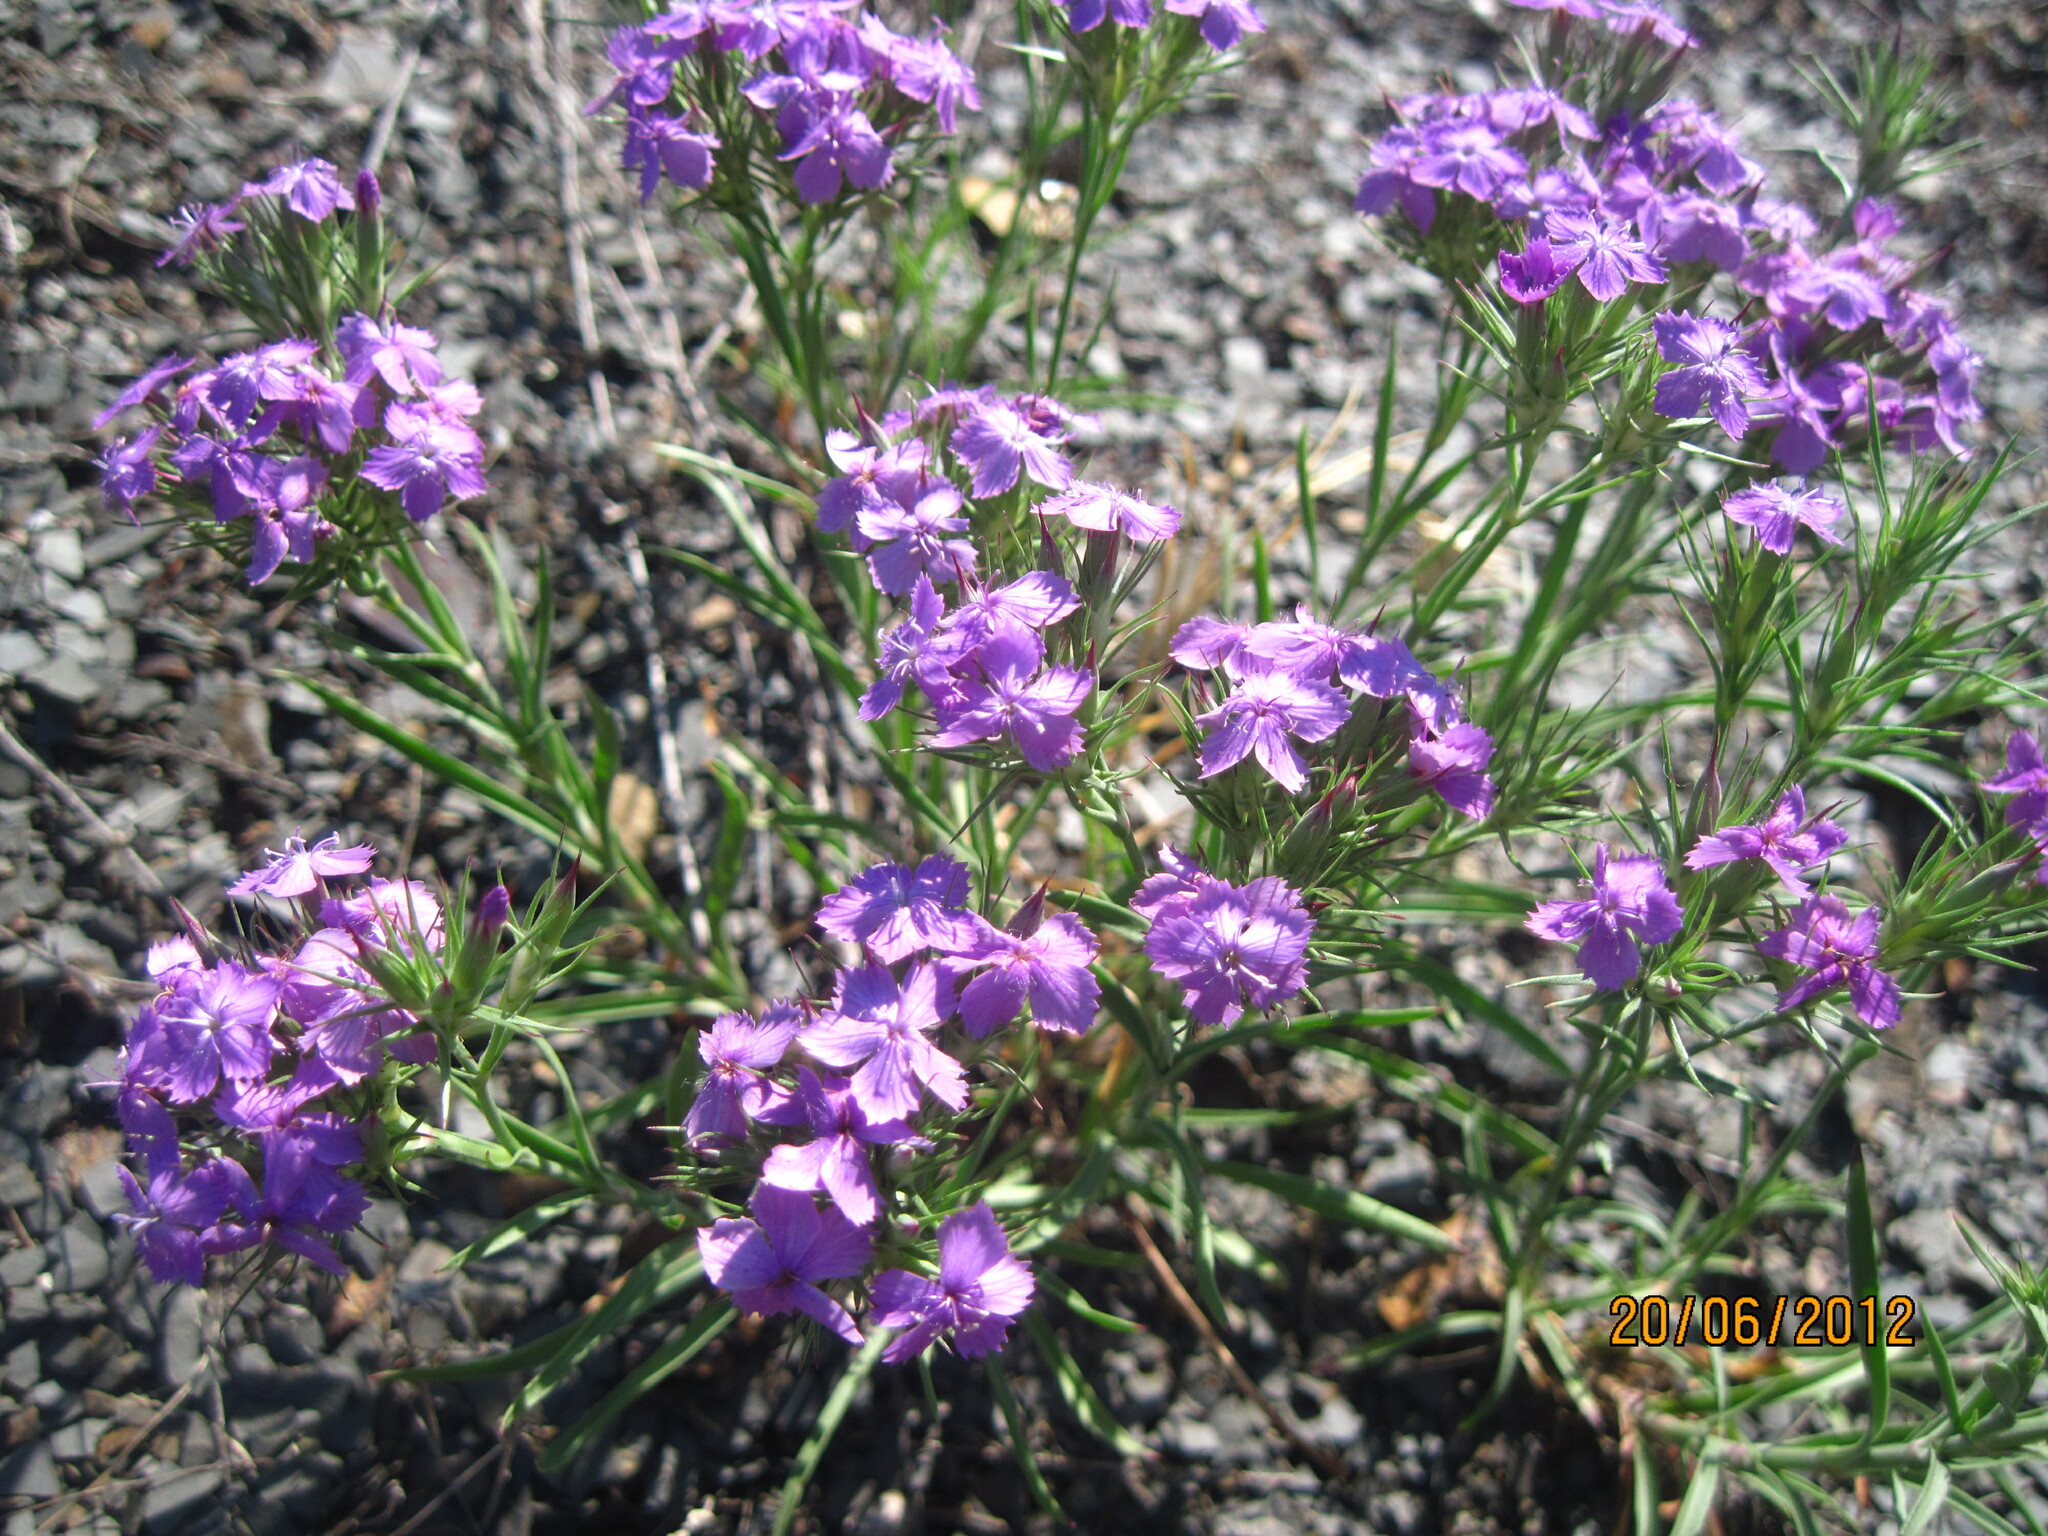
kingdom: Plantae
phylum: Tracheophyta
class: Magnoliopsida
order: Caryophyllales
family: Caryophyllaceae
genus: Dianthus
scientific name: Dianthus pseudarmeria
